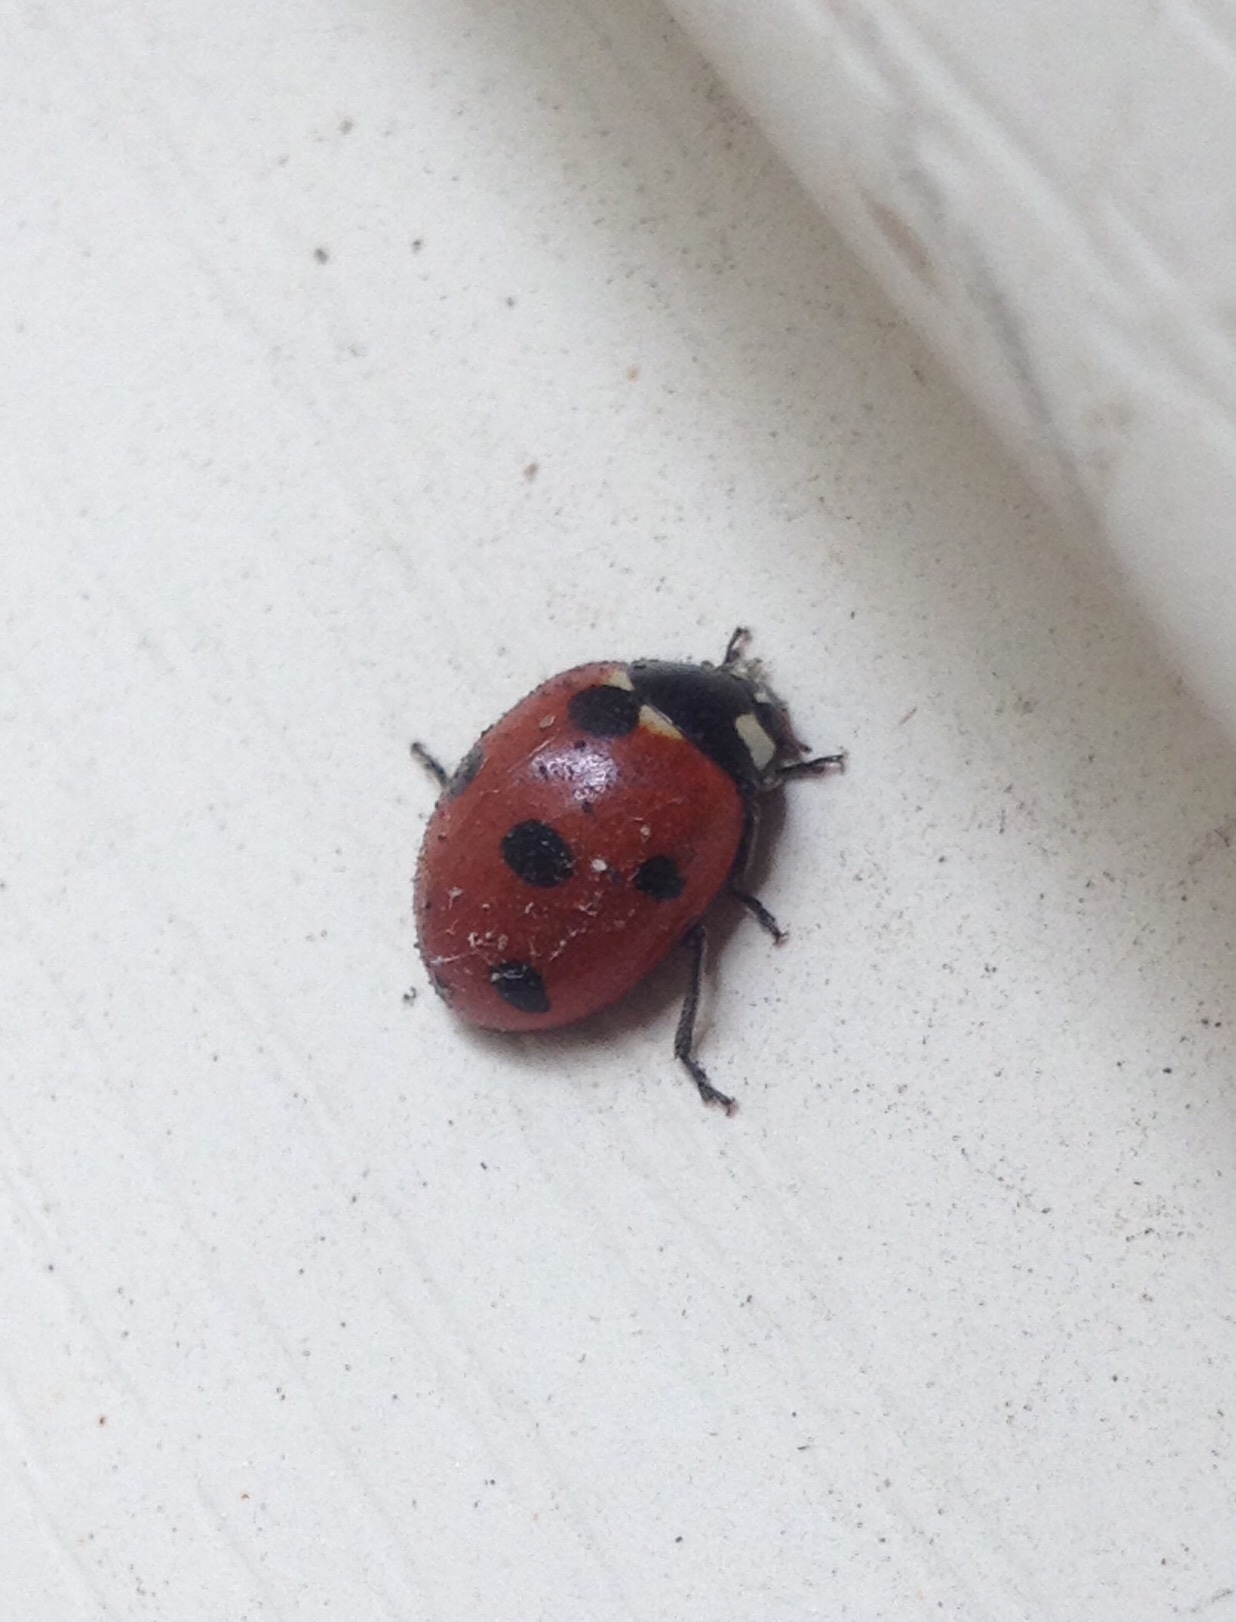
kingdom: Animalia
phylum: Arthropoda
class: Insecta
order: Coleoptera
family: Coccinellidae
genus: Coccinella
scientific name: Coccinella septempunctata
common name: Sevenspotted lady beetle
